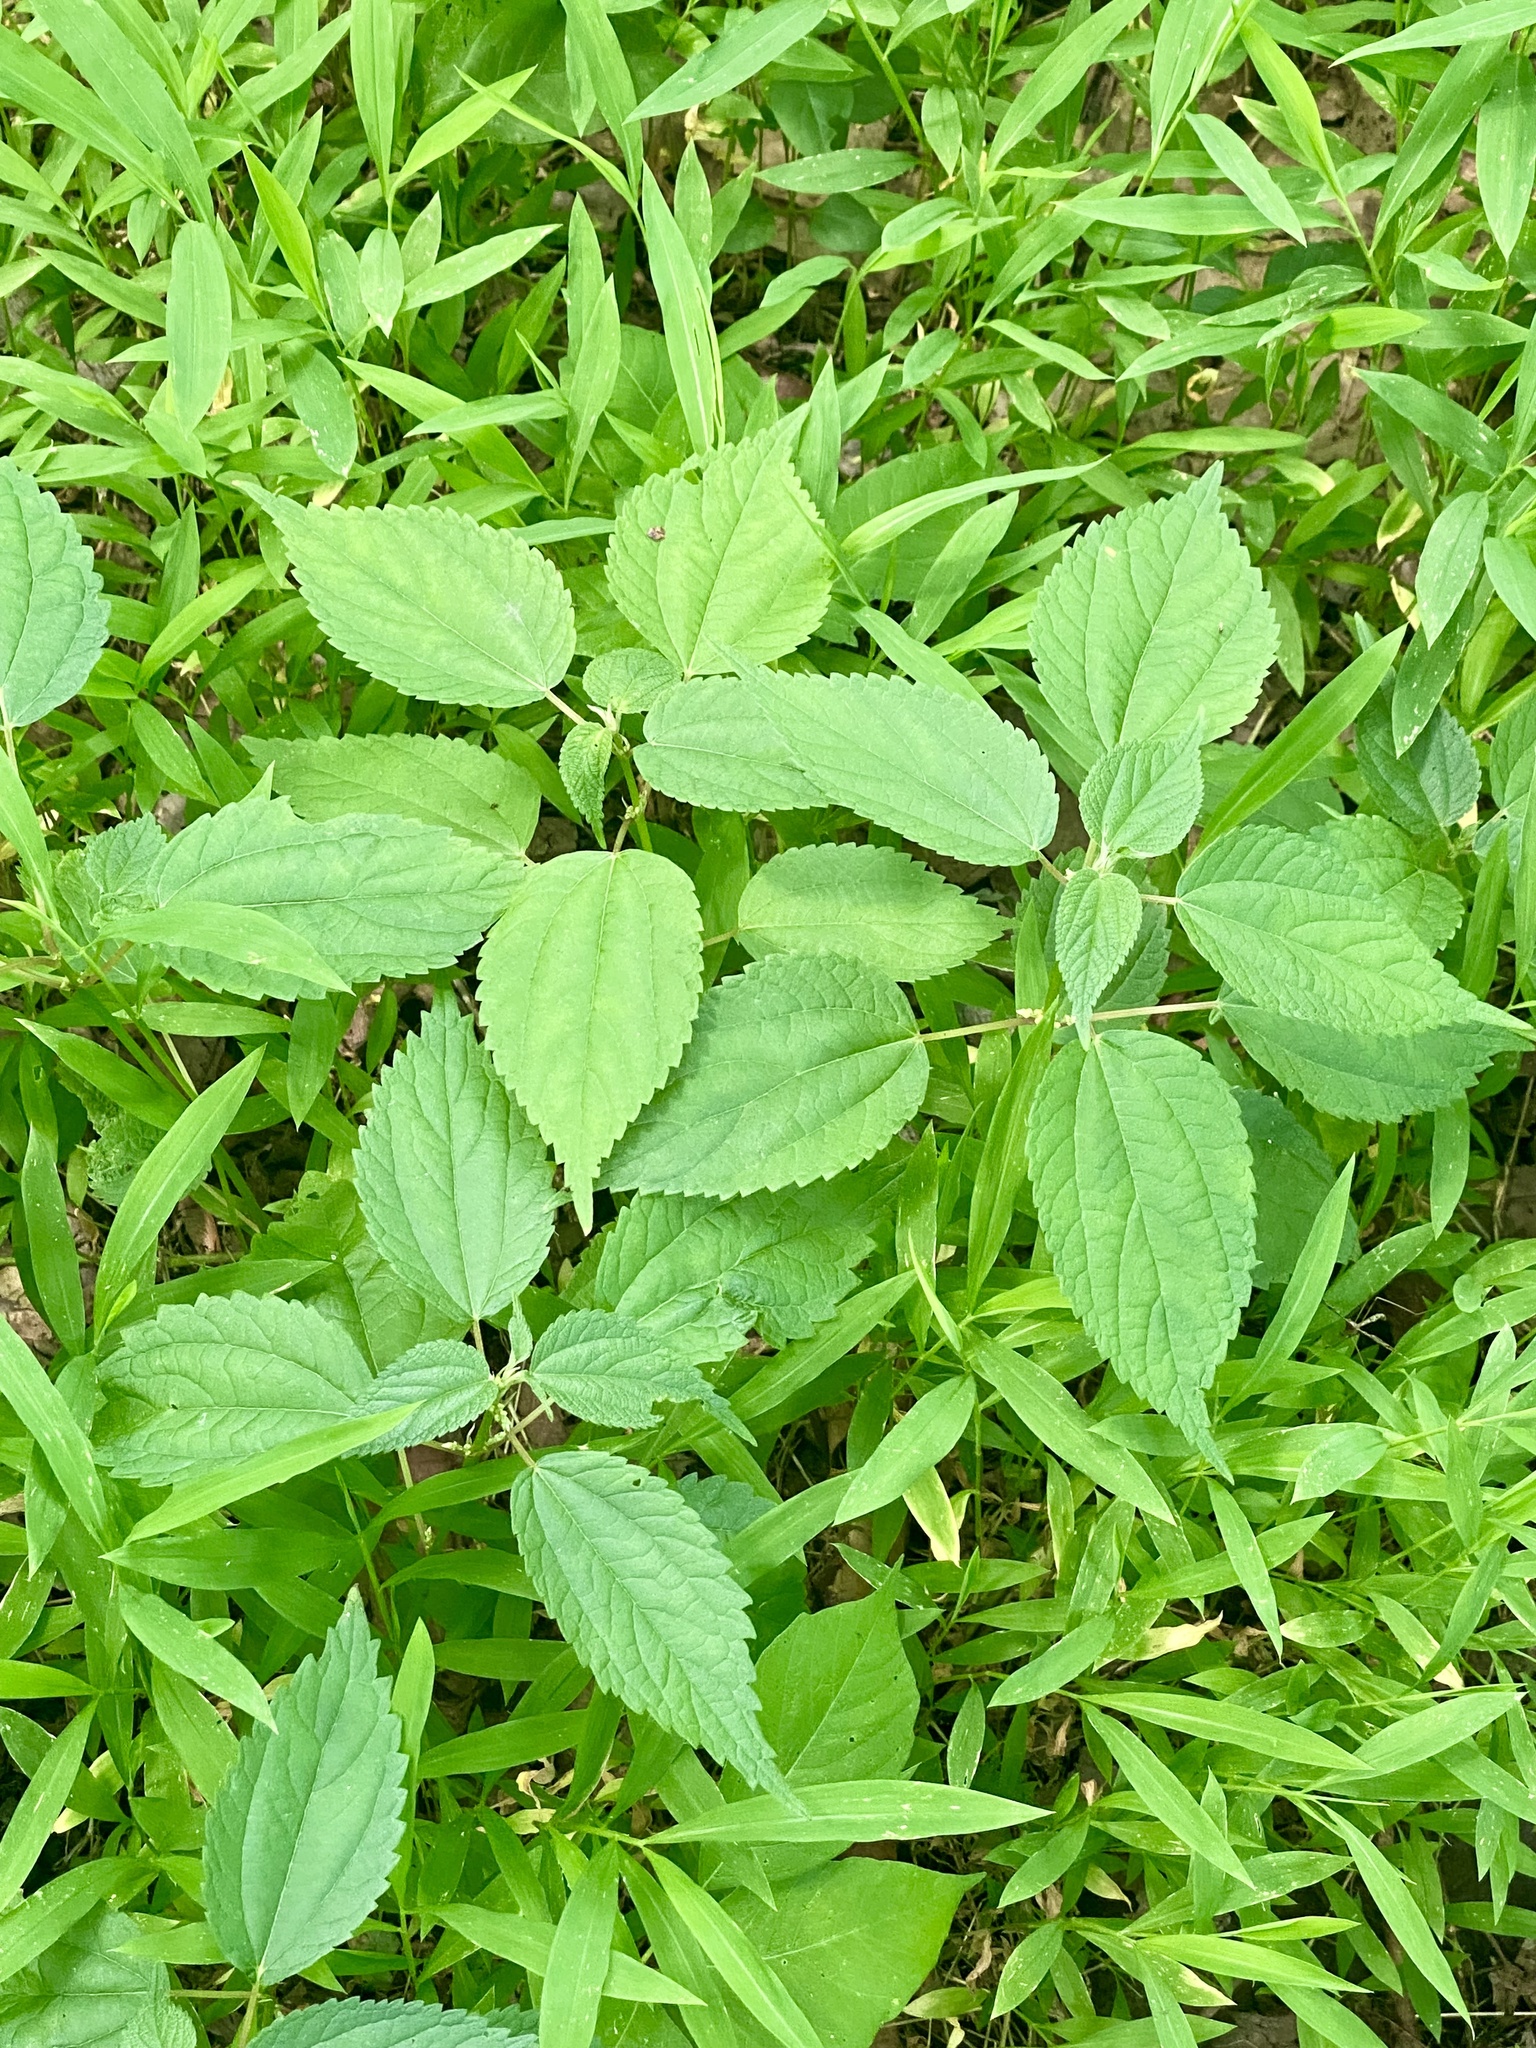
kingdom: Plantae
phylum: Tracheophyta
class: Magnoliopsida
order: Rosales
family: Urticaceae
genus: Boehmeria
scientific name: Boehmeria cylindrica
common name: Bog-hemp
